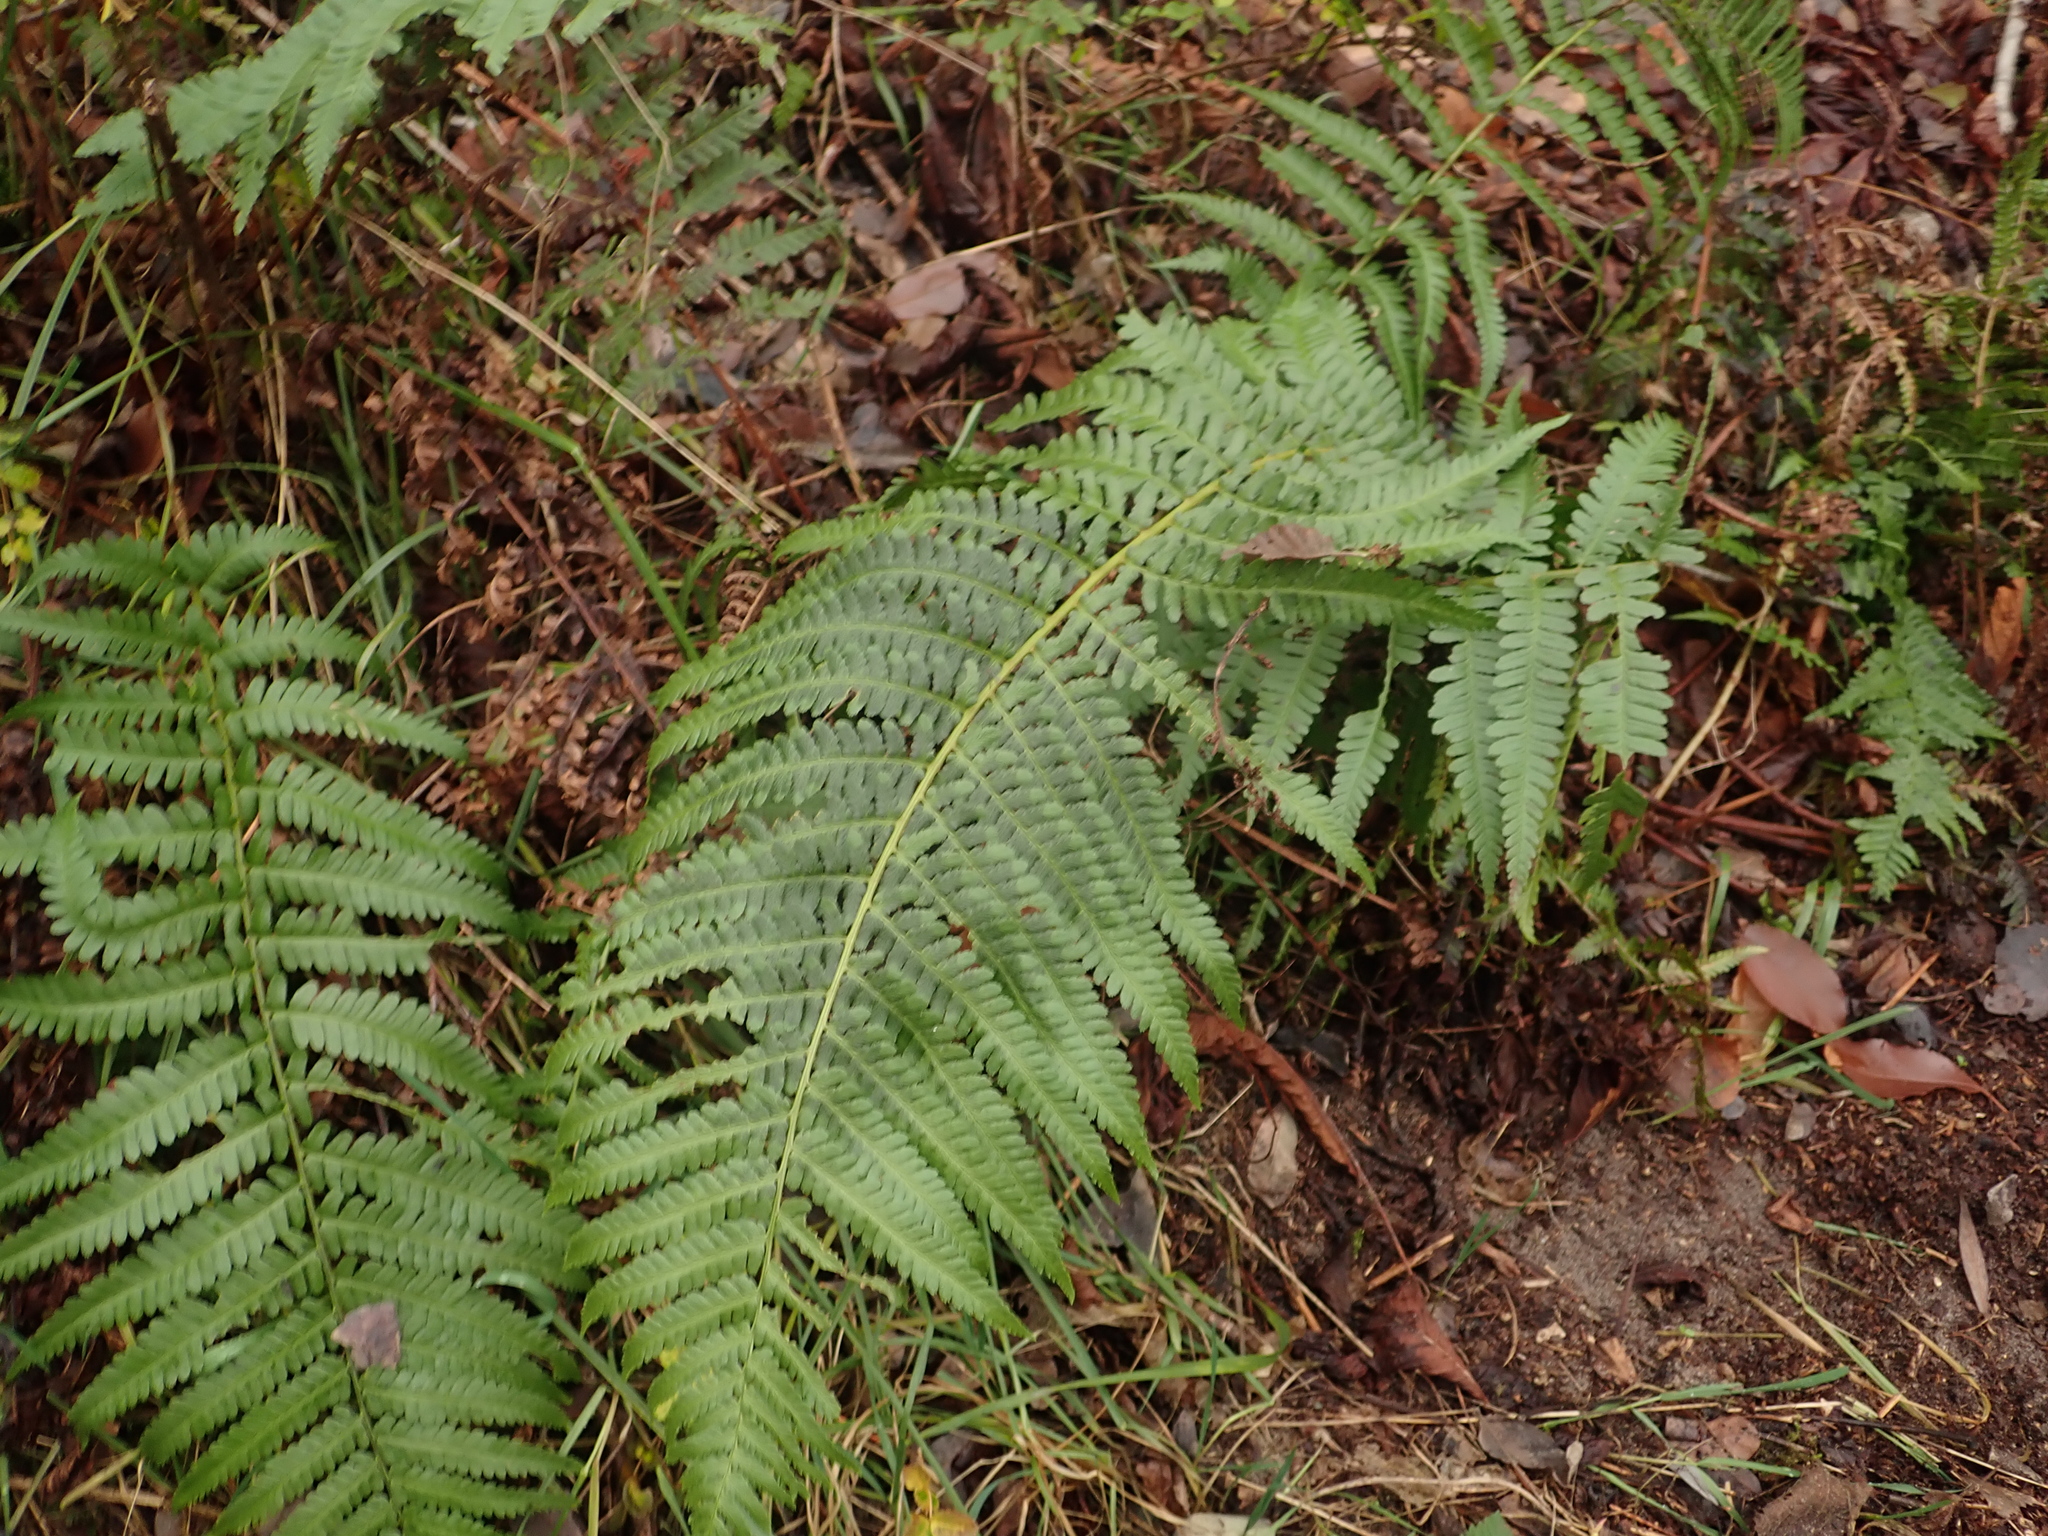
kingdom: Plantae
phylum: Tracheophyta
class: Polypodiopsida
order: Polypodiales
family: Dryopteridaceae
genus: Dryopteris
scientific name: Dryopteris filix-mas
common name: Male fern
